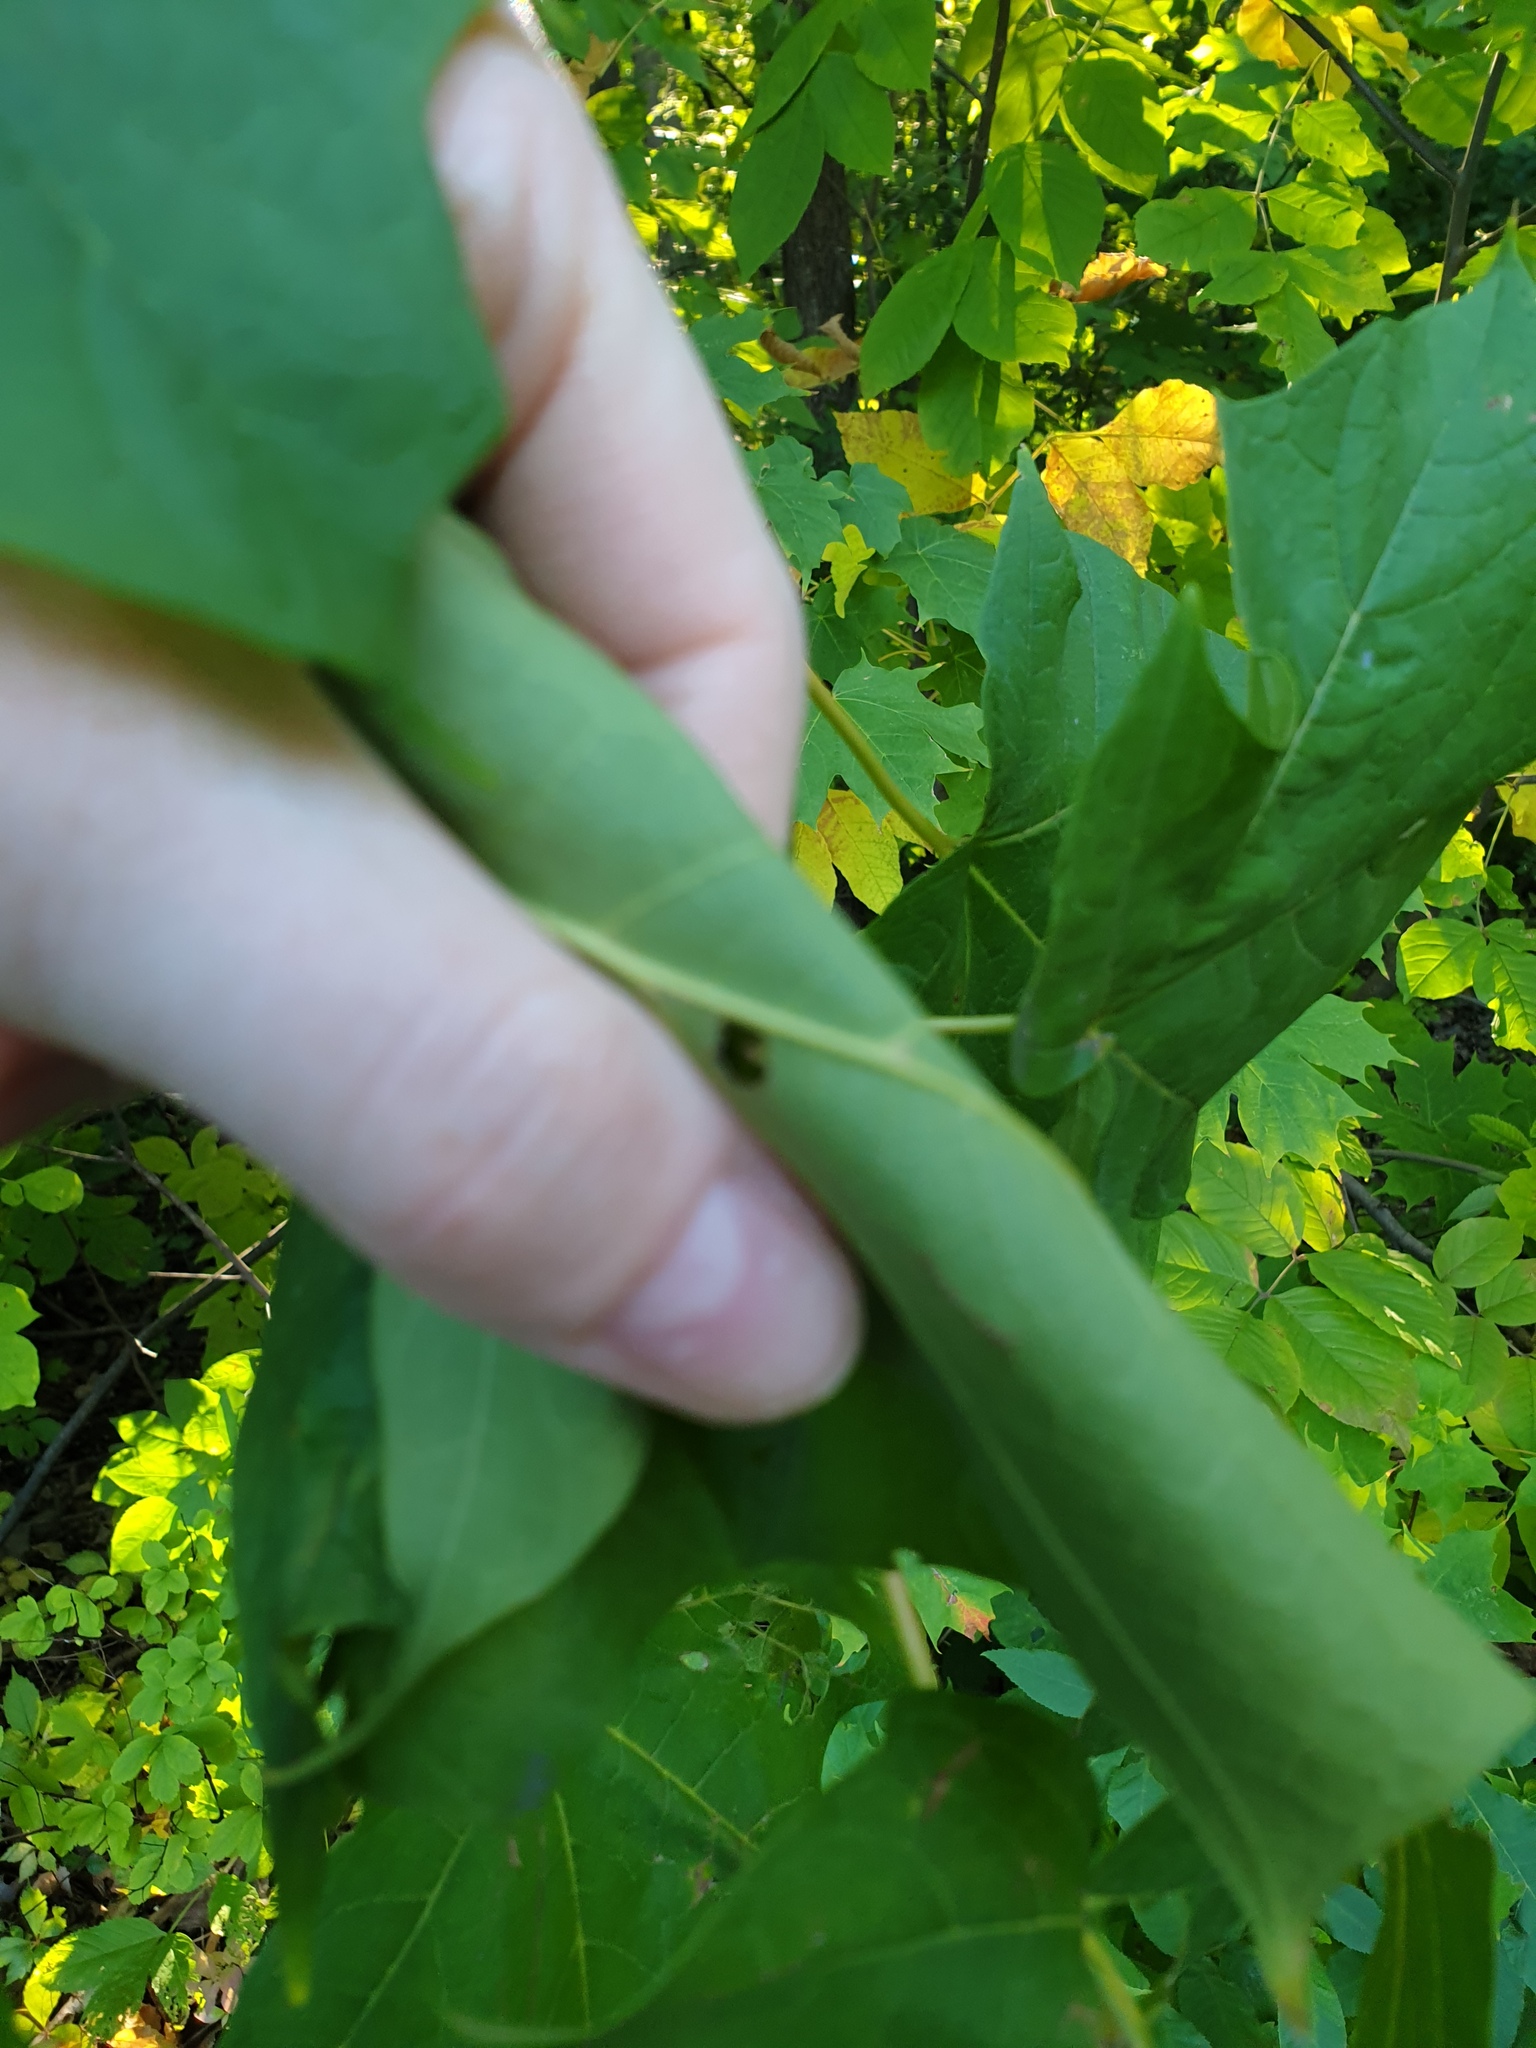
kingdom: Plantae
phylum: Tracheophyta
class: Magnoliopsida
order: Sapindales
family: Sapindaceae
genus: Acer
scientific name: Acer nigrum
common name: Black maple
